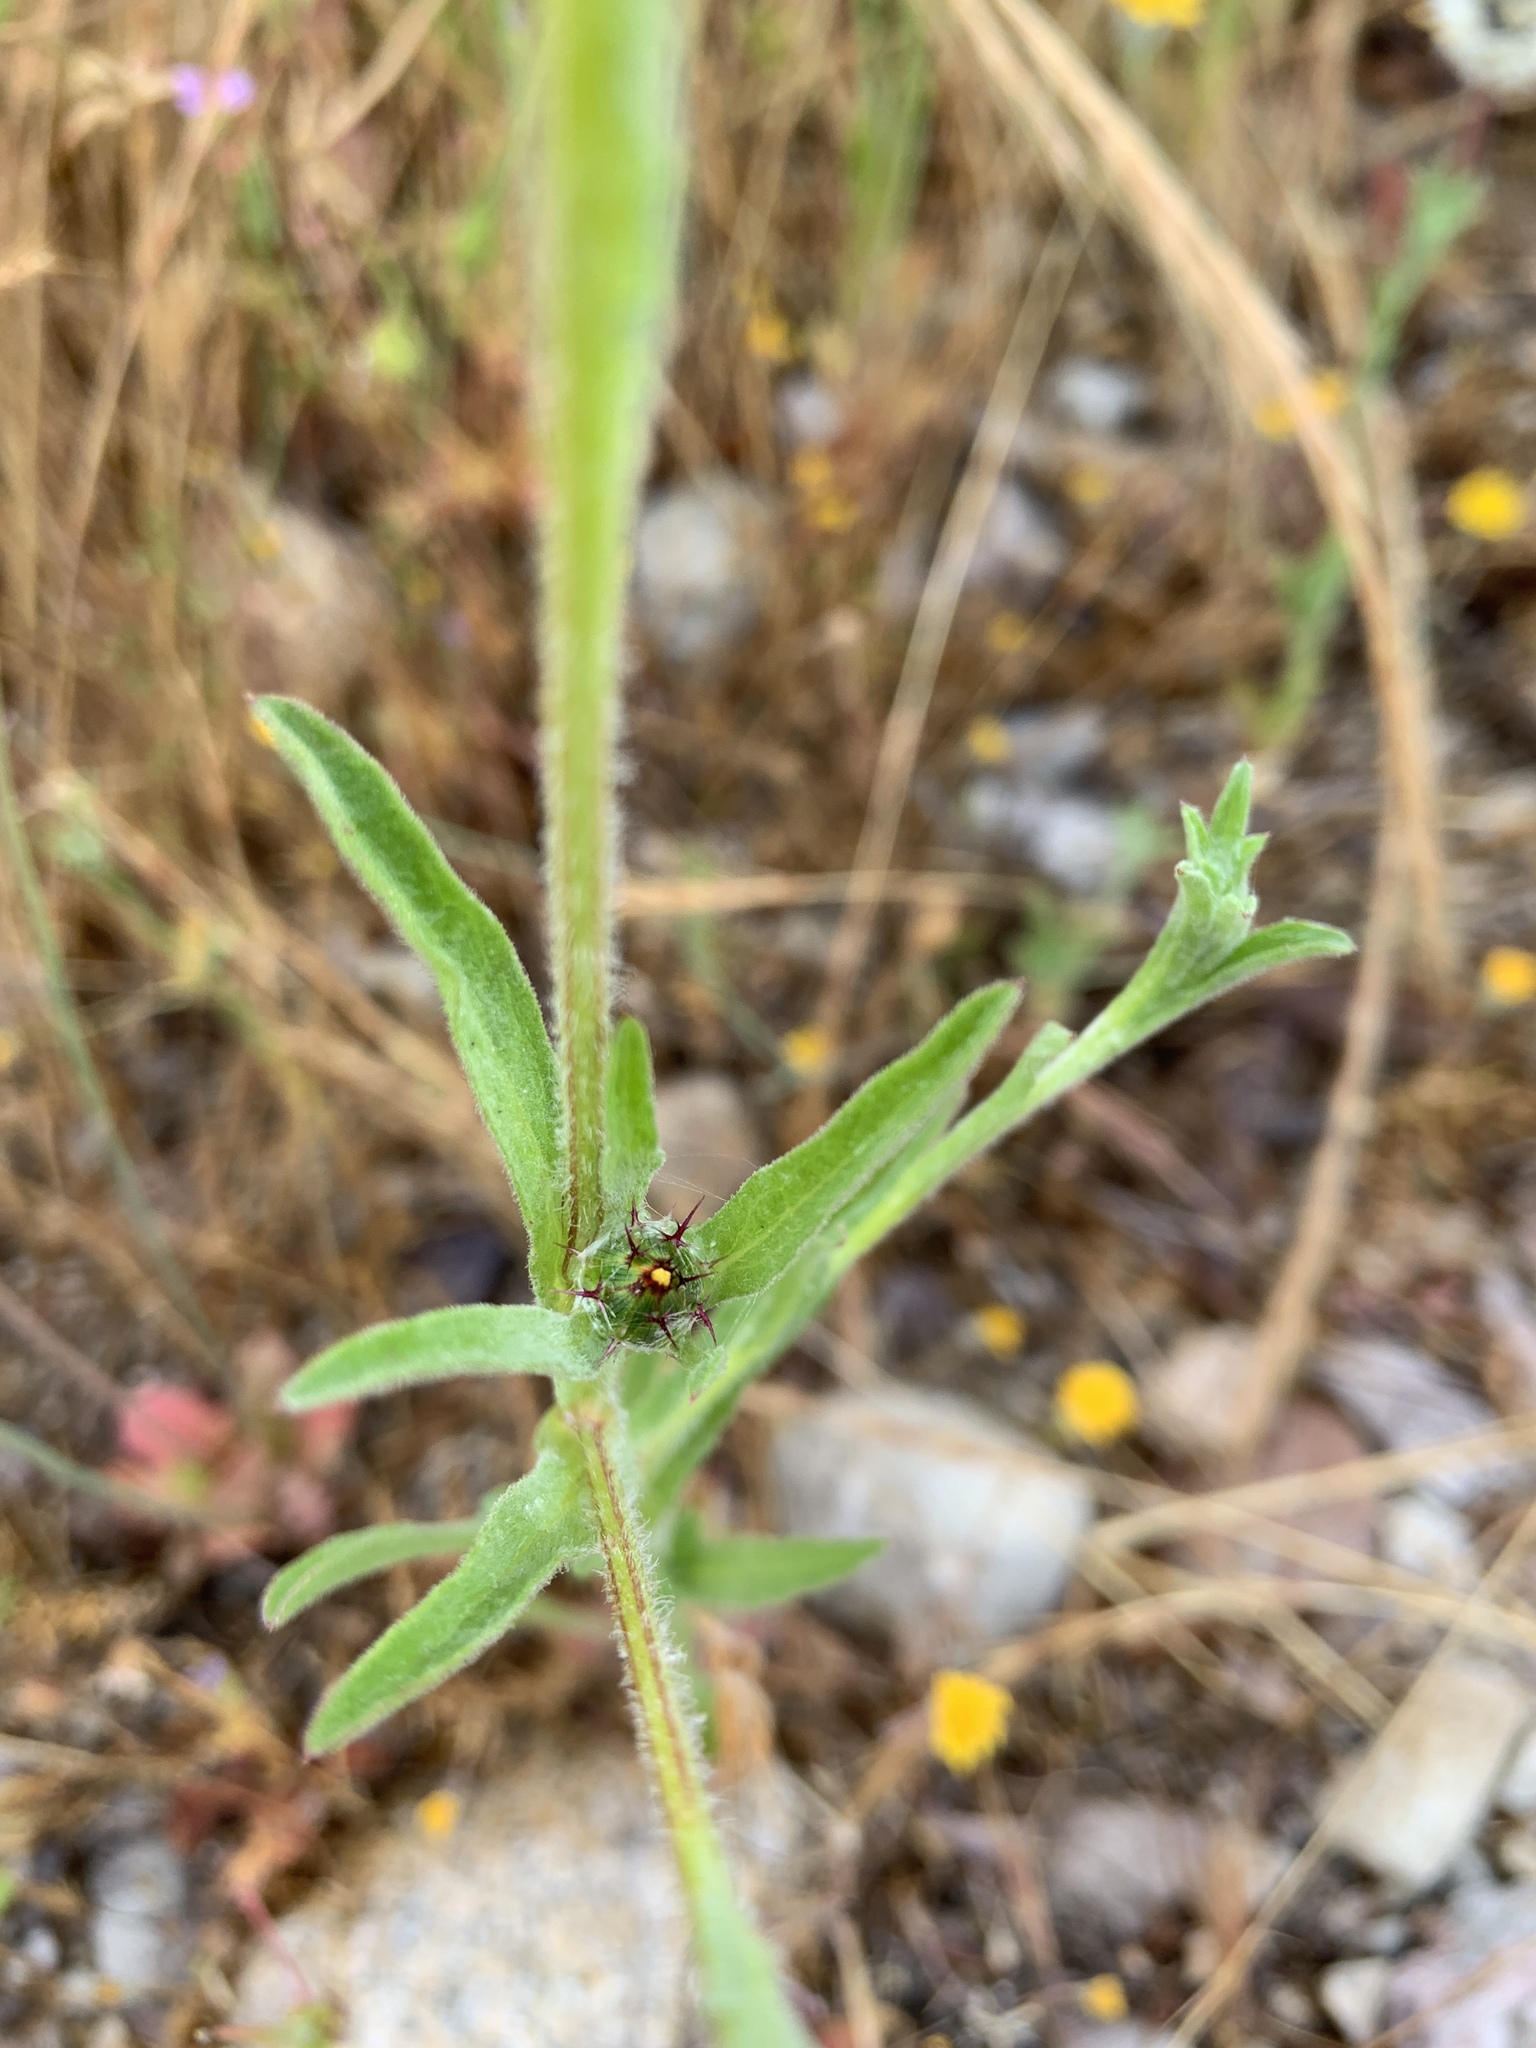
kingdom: Plantae
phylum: Tracheophyta
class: Magnoliopsida
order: Asterales
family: Asteraceae
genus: Centaurea
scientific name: Centaurea melitensis
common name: Maltese star-thistle
